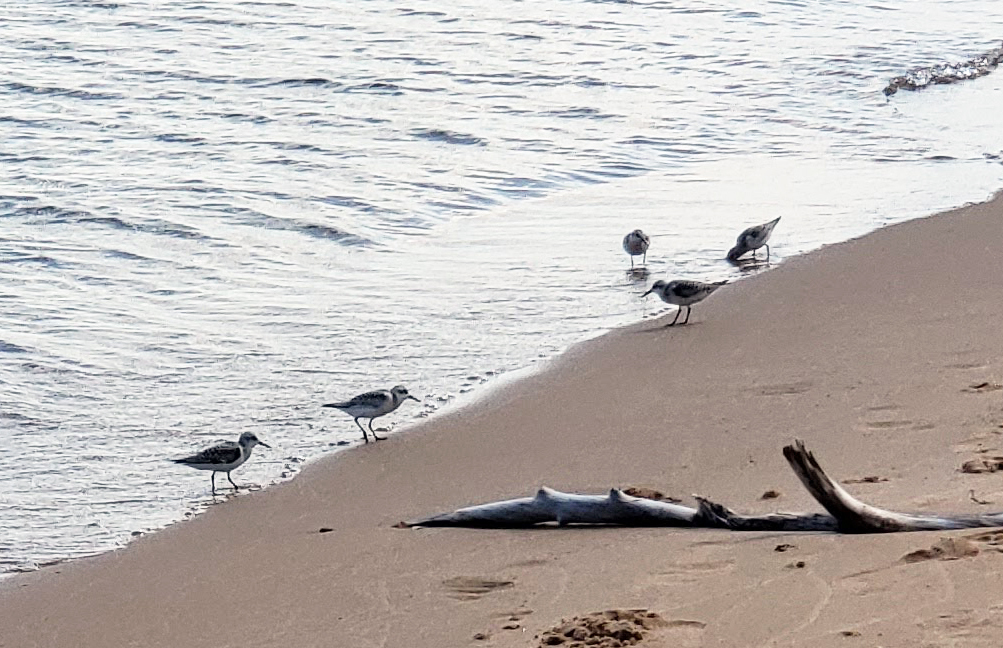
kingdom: Animalia
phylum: Chordata
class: Aves
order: Charadriiformes
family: Scolopacidae
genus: Calidris
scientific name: Calidris alba
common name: Sanderling
